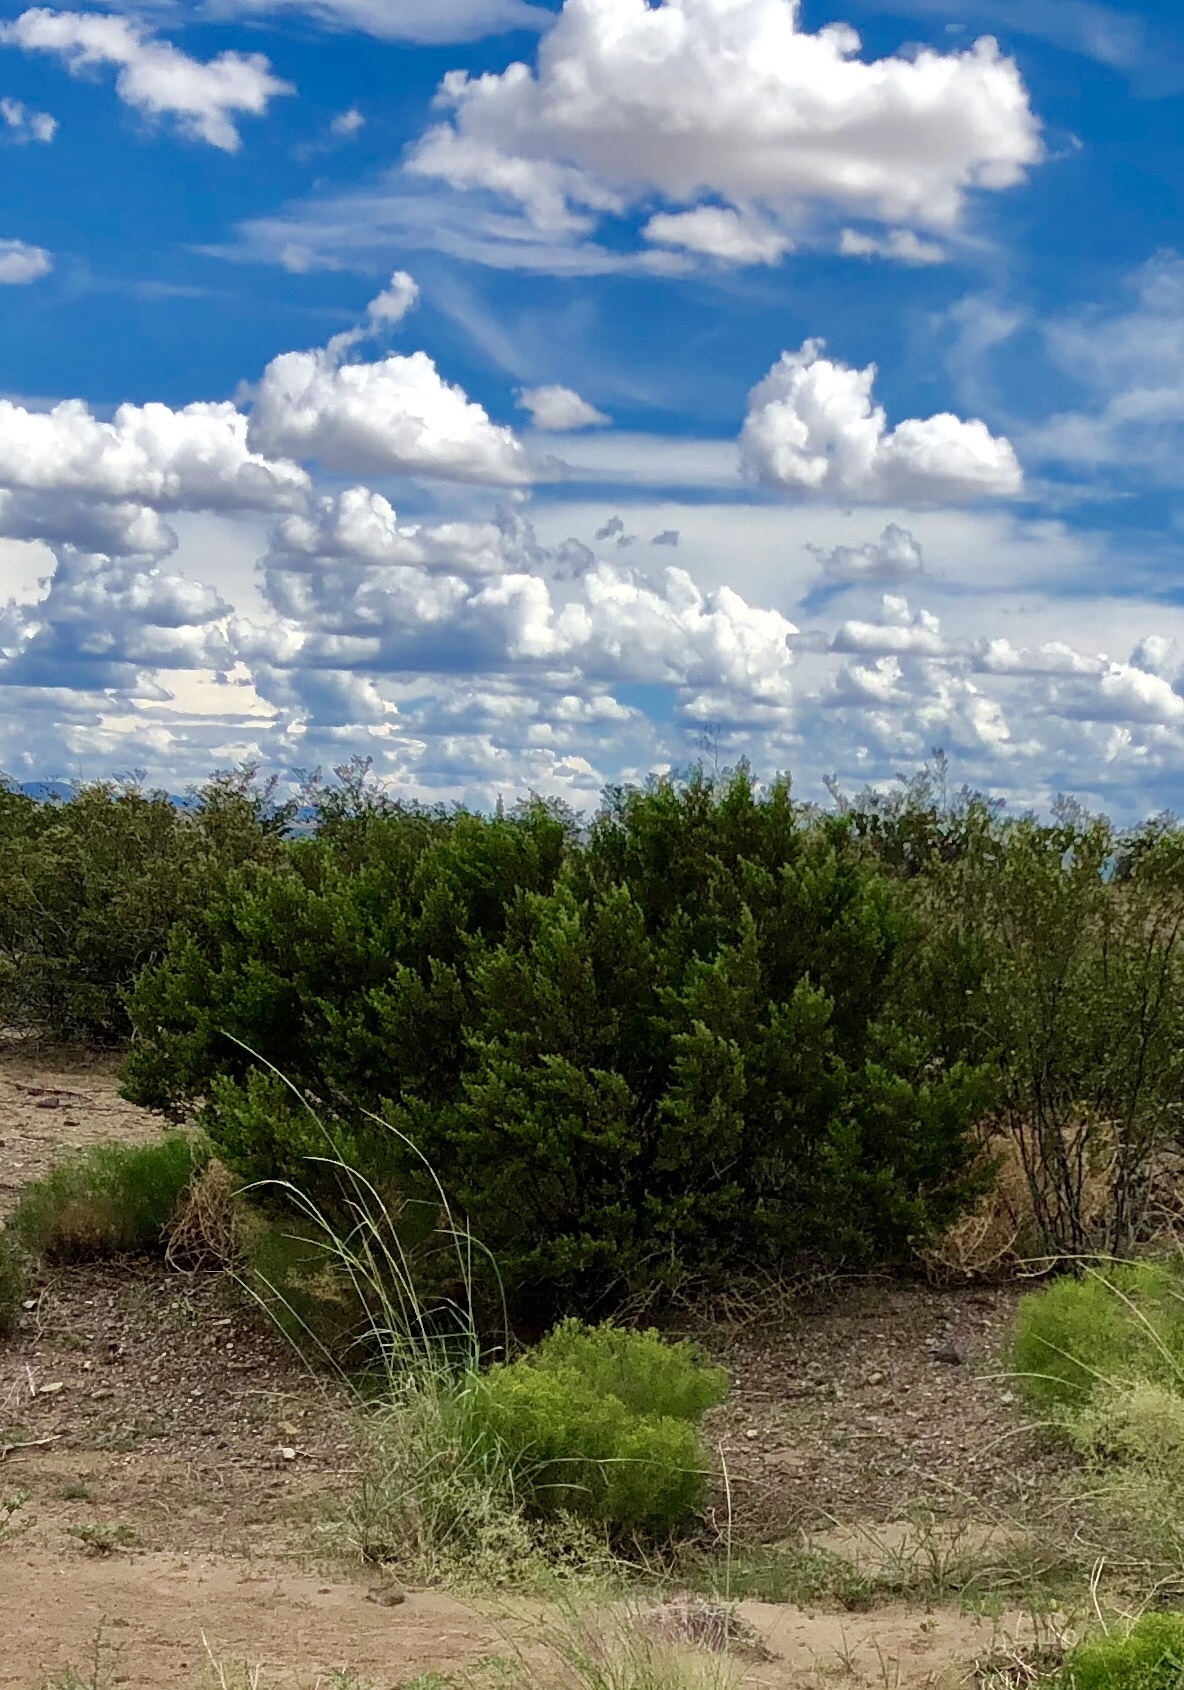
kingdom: Plantae
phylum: Tracheophyta
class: Magnoliopsida
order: Zygophyllales
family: Zygophyllaceae
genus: Larrea
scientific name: Larrea tridentata
